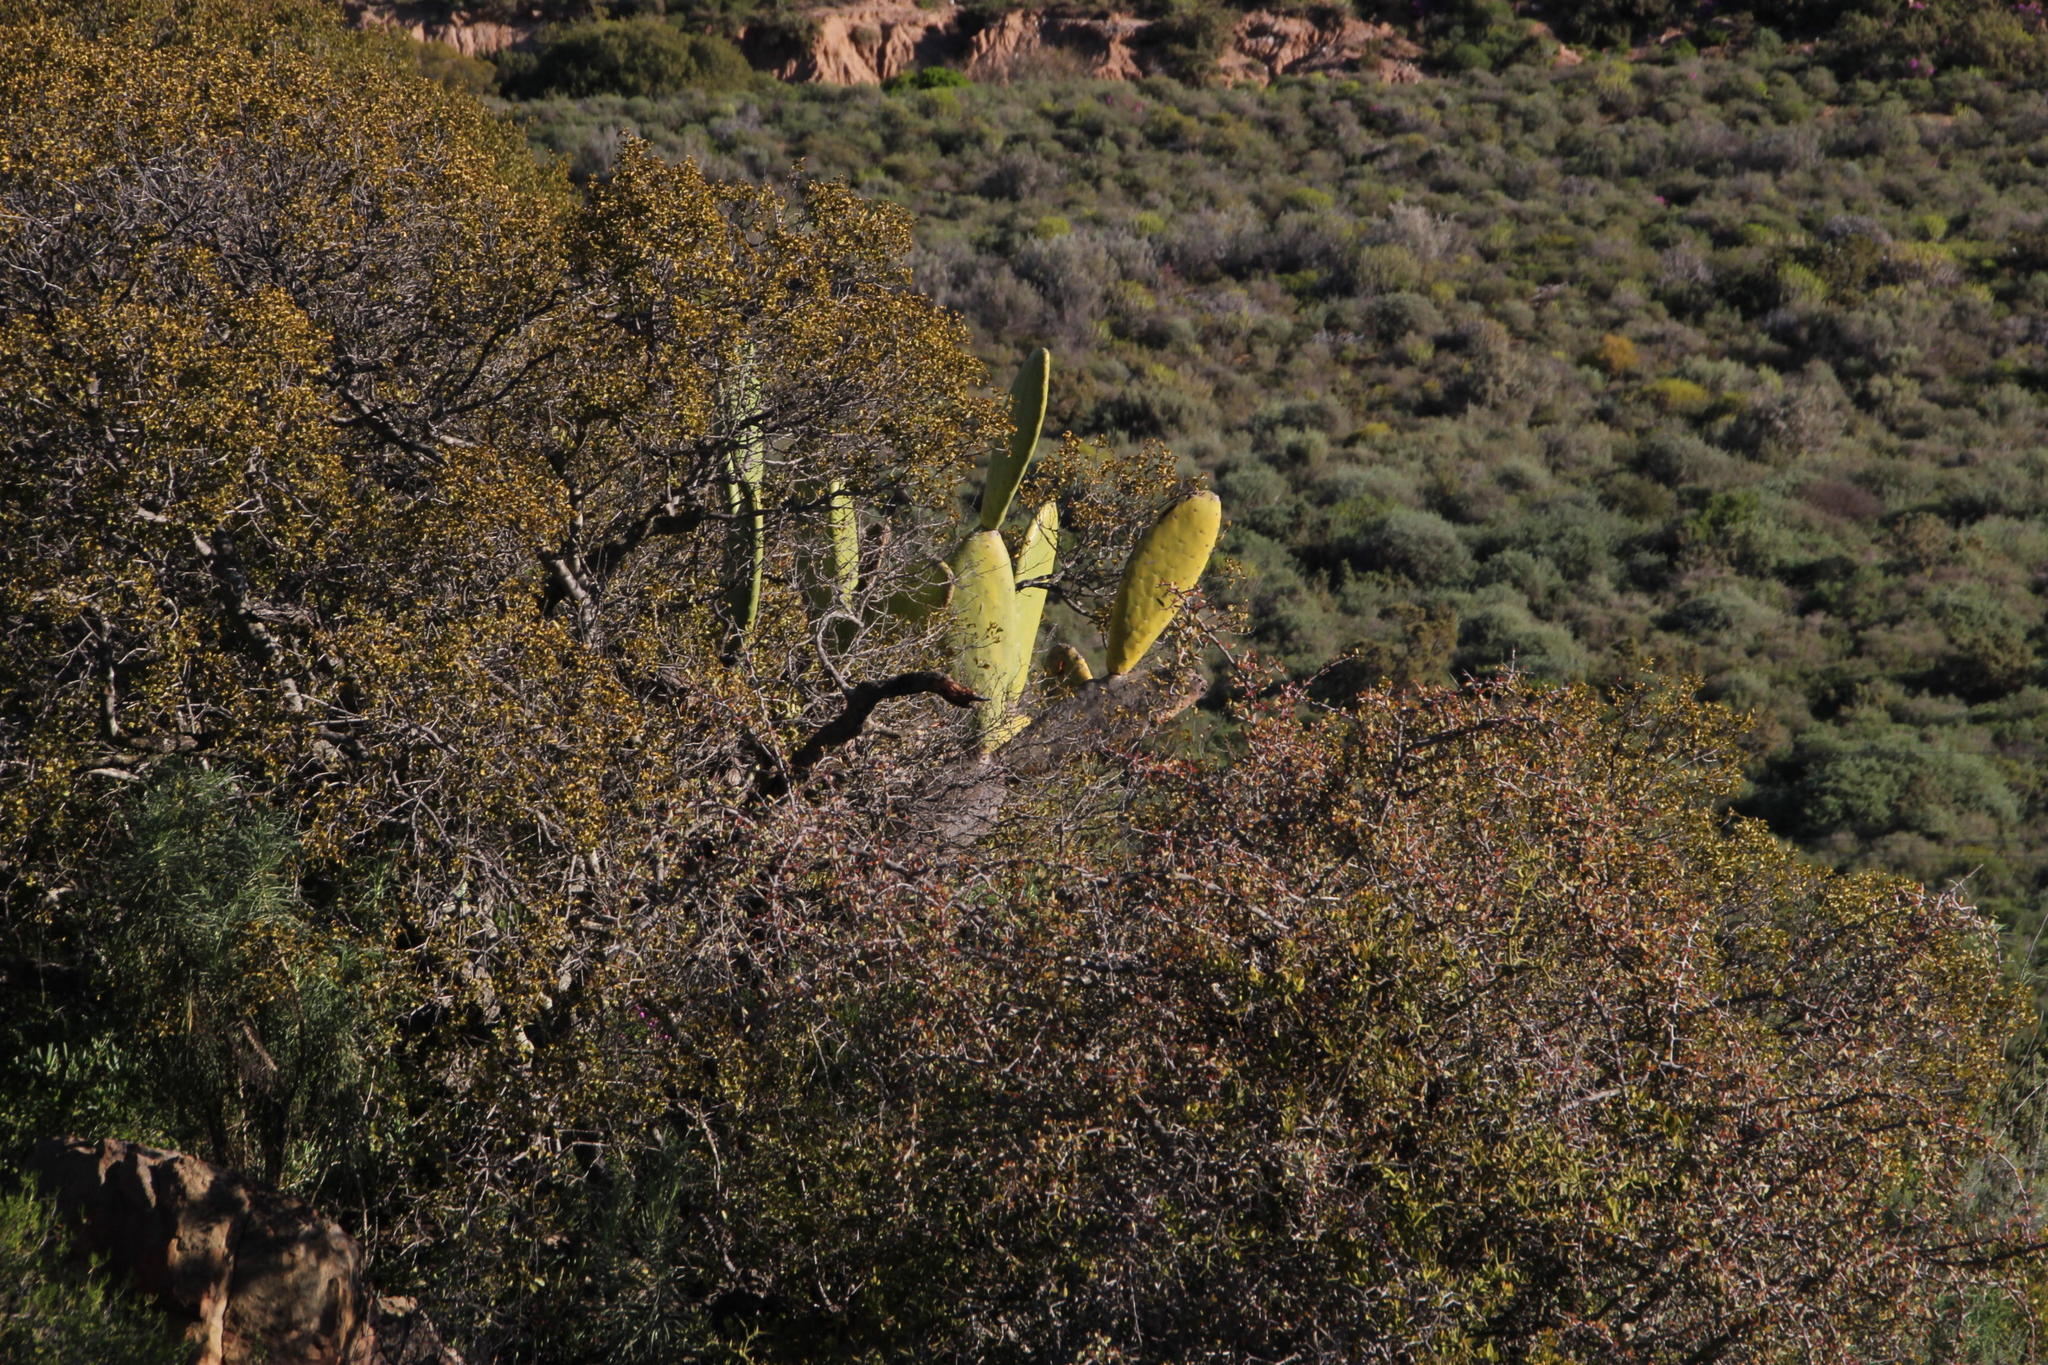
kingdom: Plantae
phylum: Tracheophyta
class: Magnoliopsida
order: Caryophyllales
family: Cactaceae
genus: Opuntia
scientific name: Opuntia ficus-indica
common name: Barbary fig
